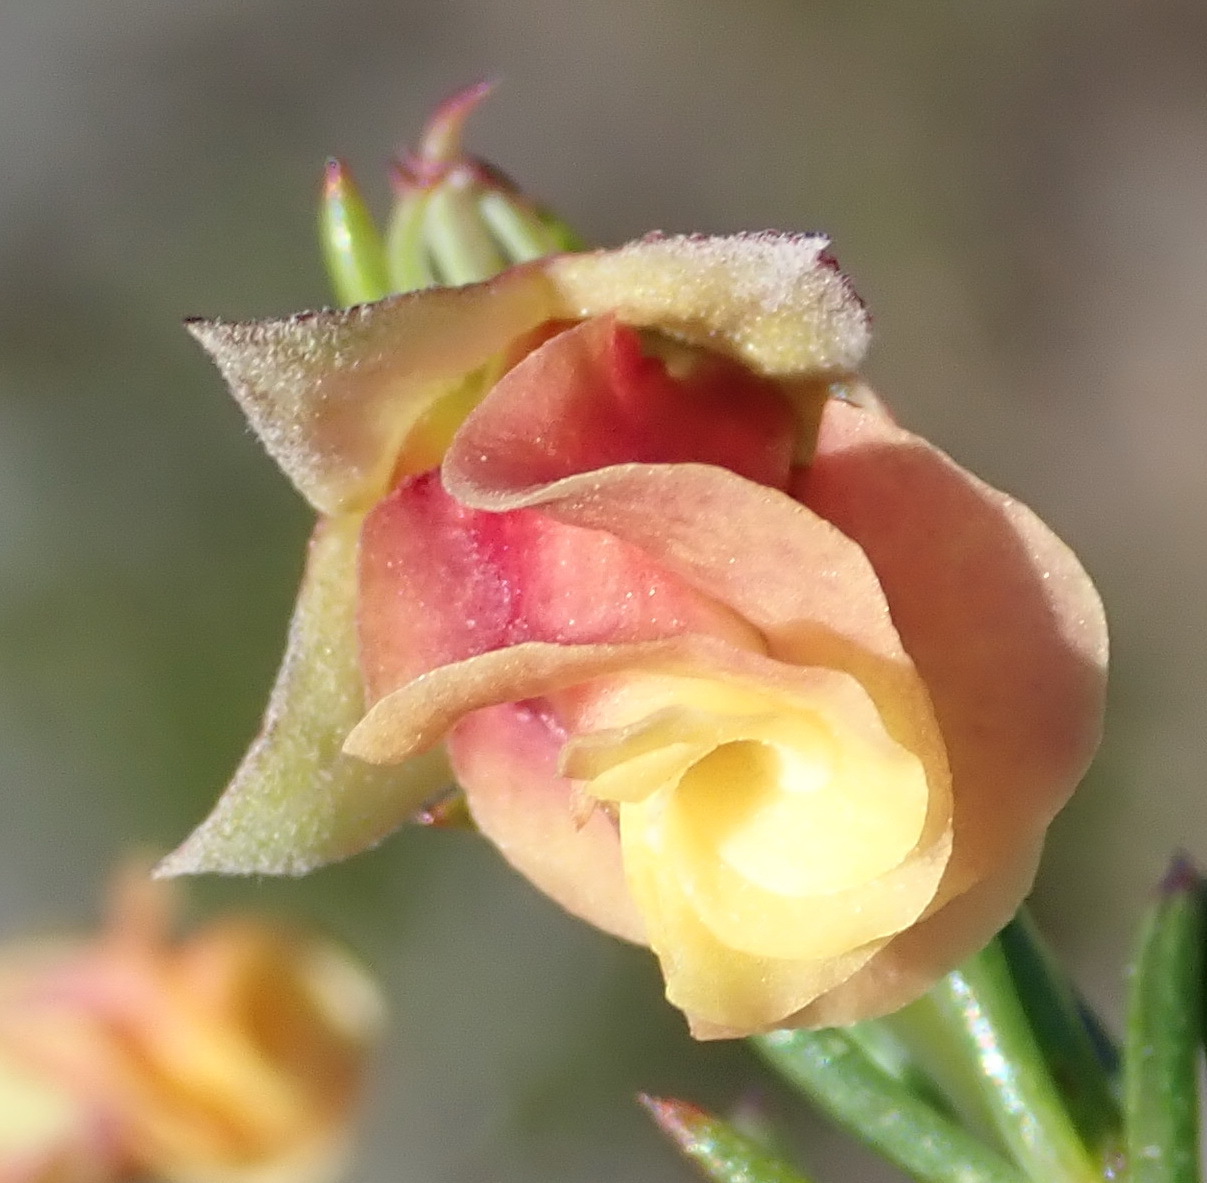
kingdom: Plantae
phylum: Tracheophyta
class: Magnoliopsida
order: Malvales
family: Malvaceae
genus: Hermannia
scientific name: Hermannia filifolia
